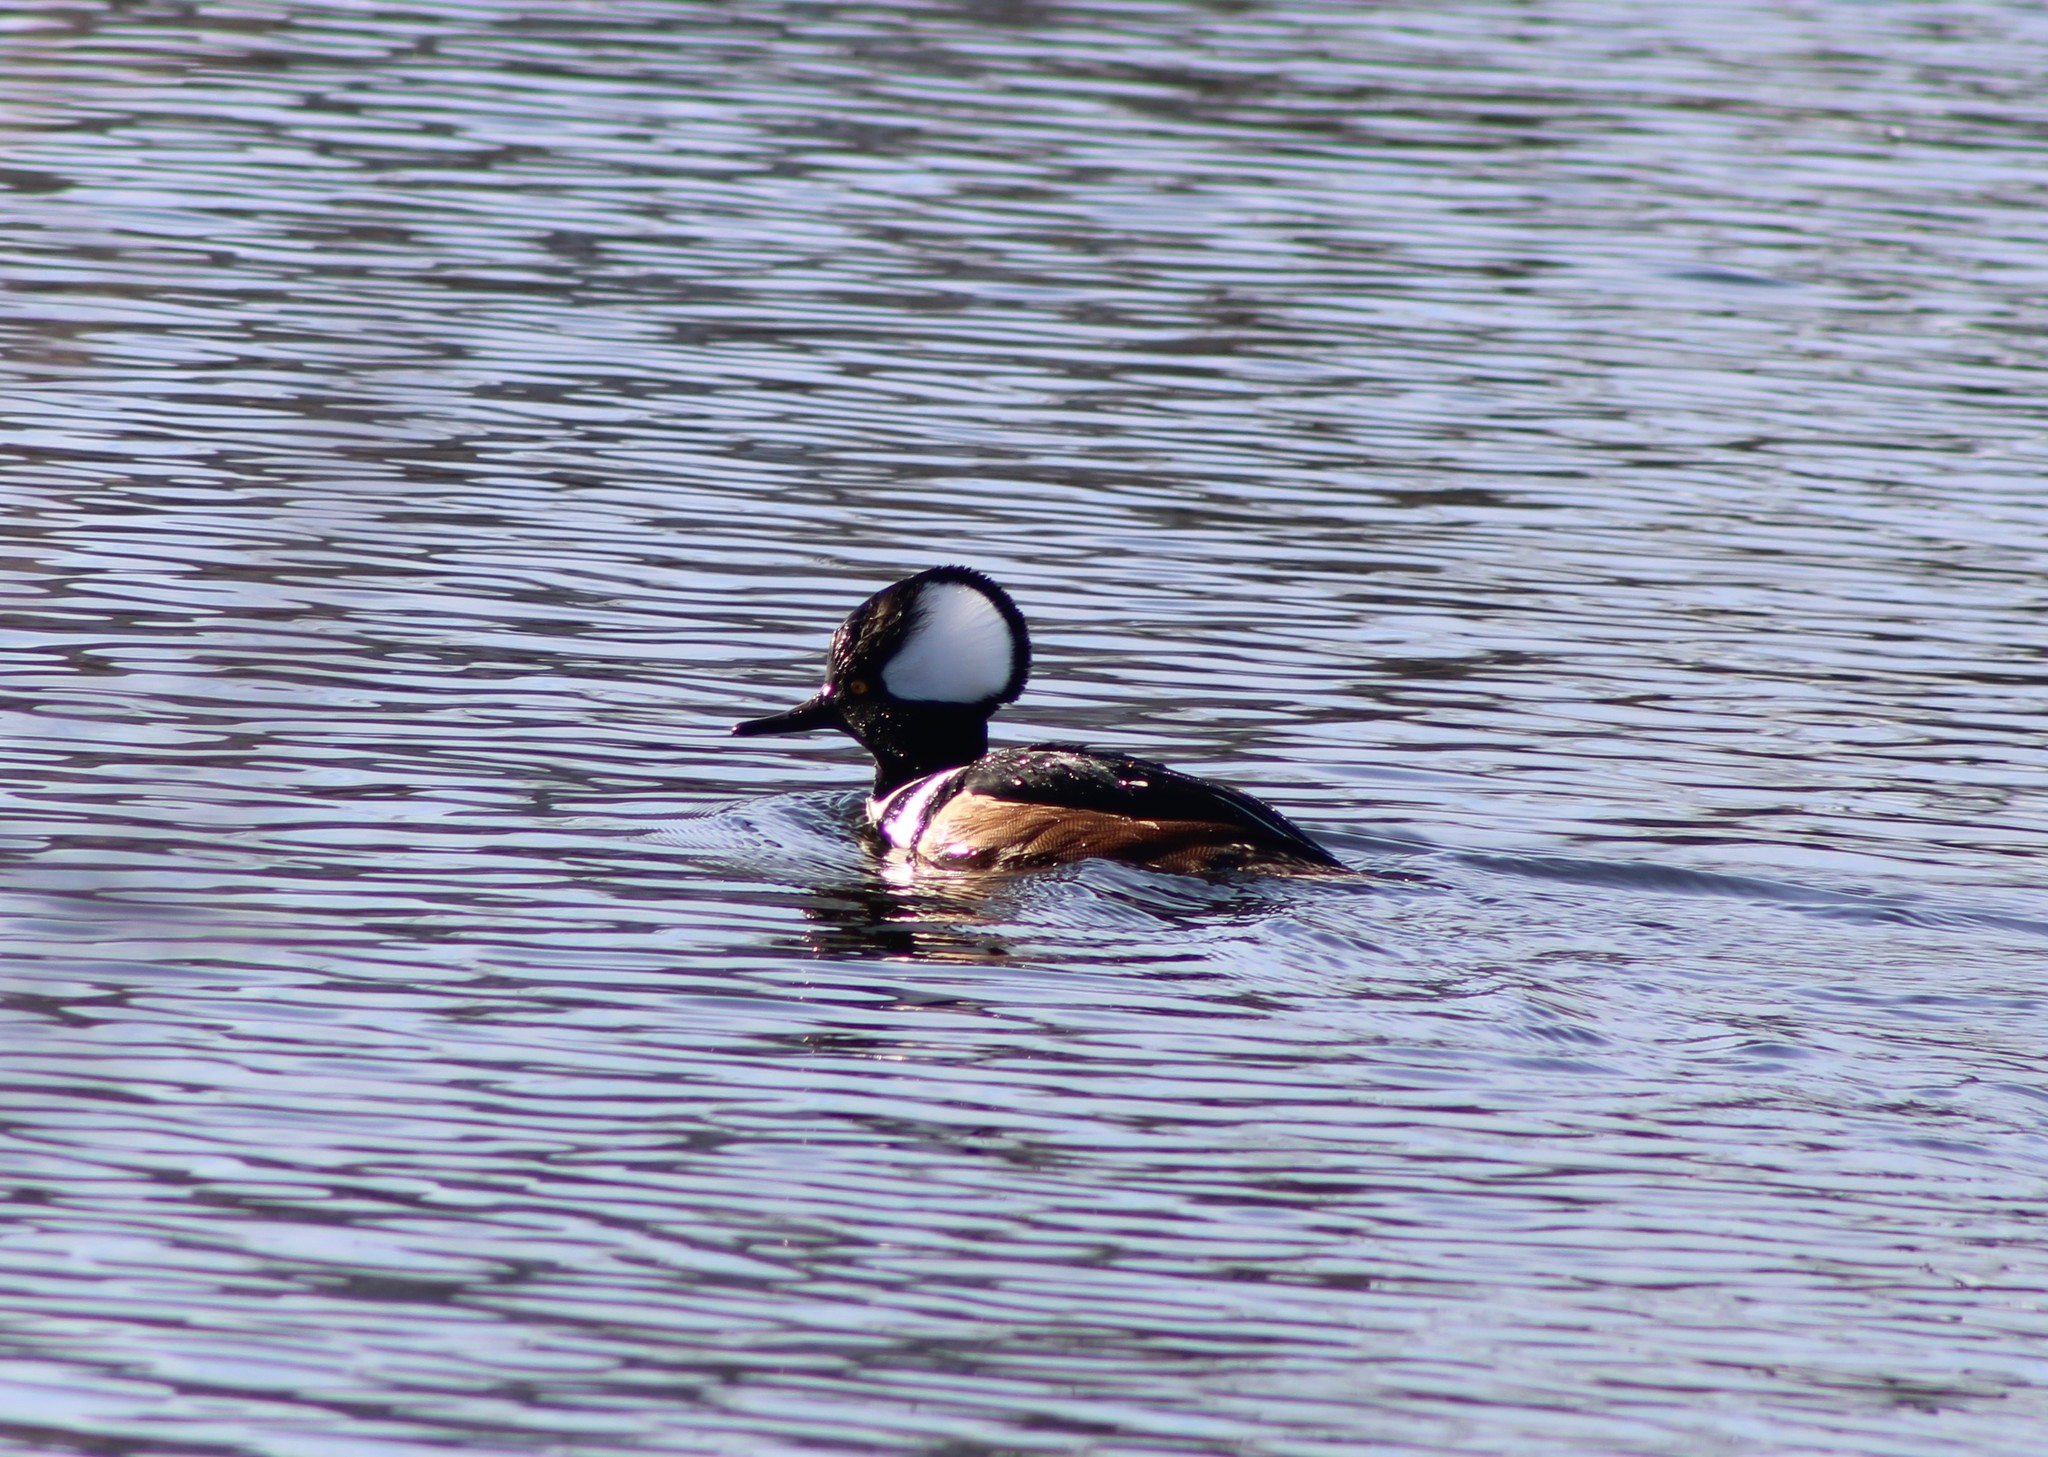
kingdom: Animalia
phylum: Chordata
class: Aves
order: Anseriformes
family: Anatidae
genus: Lophodytes
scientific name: Lophodytes cucullatus
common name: Hooded merganser
